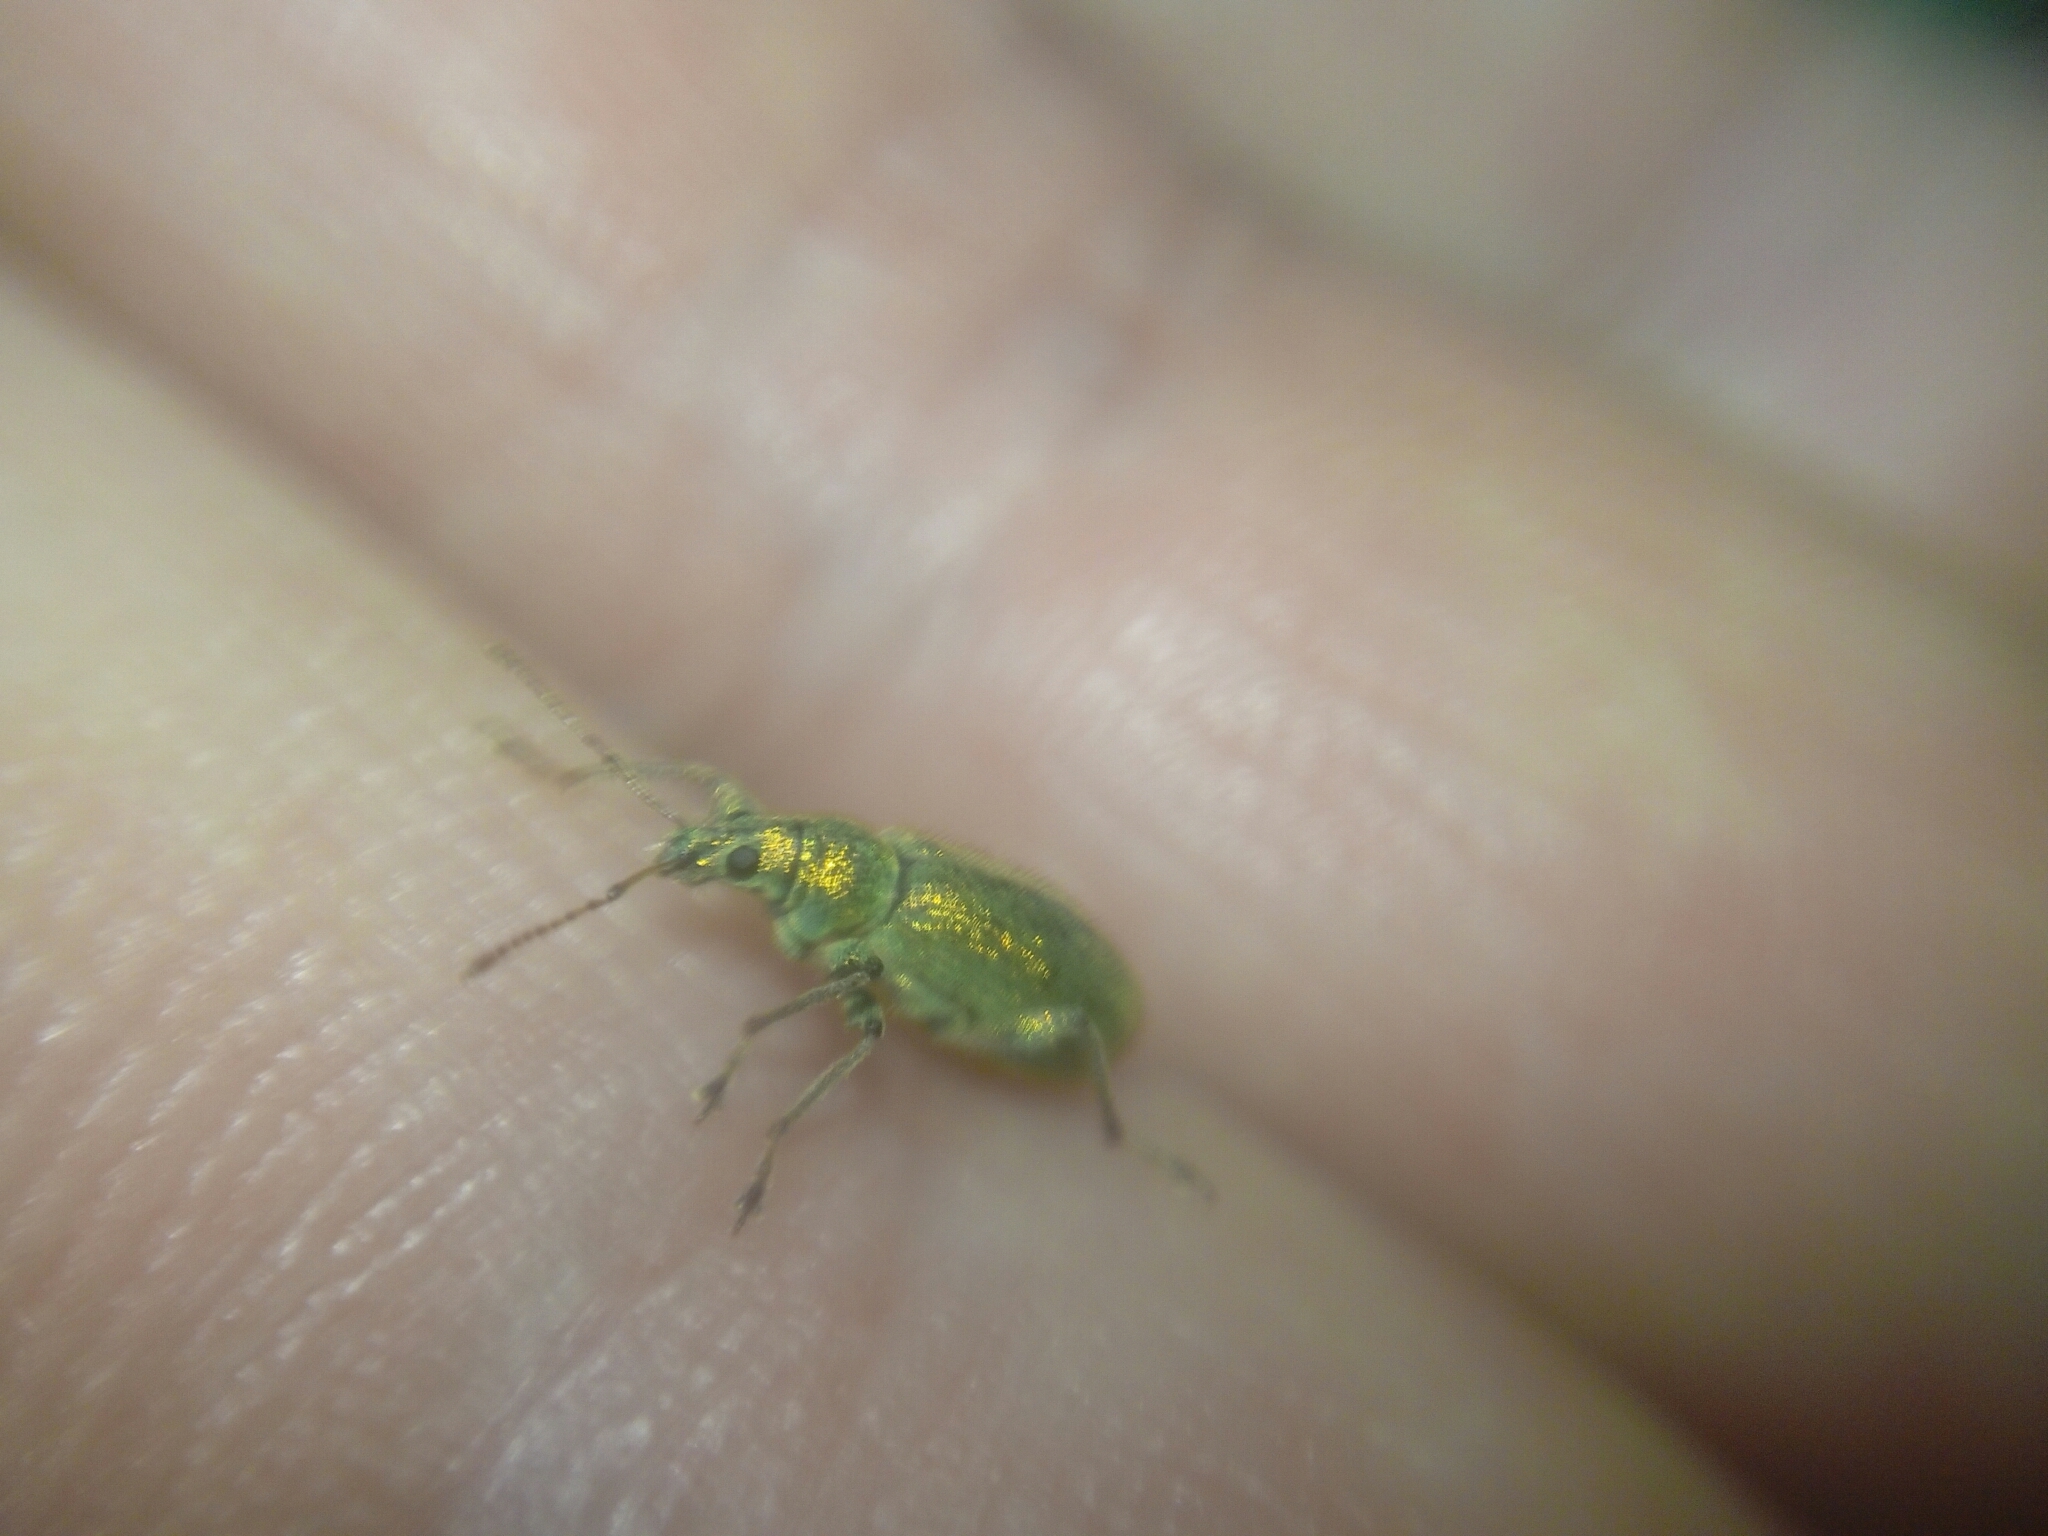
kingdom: Animalia
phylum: Arthropoda
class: Insecta
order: Coleoptera
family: Curculionidae
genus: Phyllobius
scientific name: Phyllobius arborator
